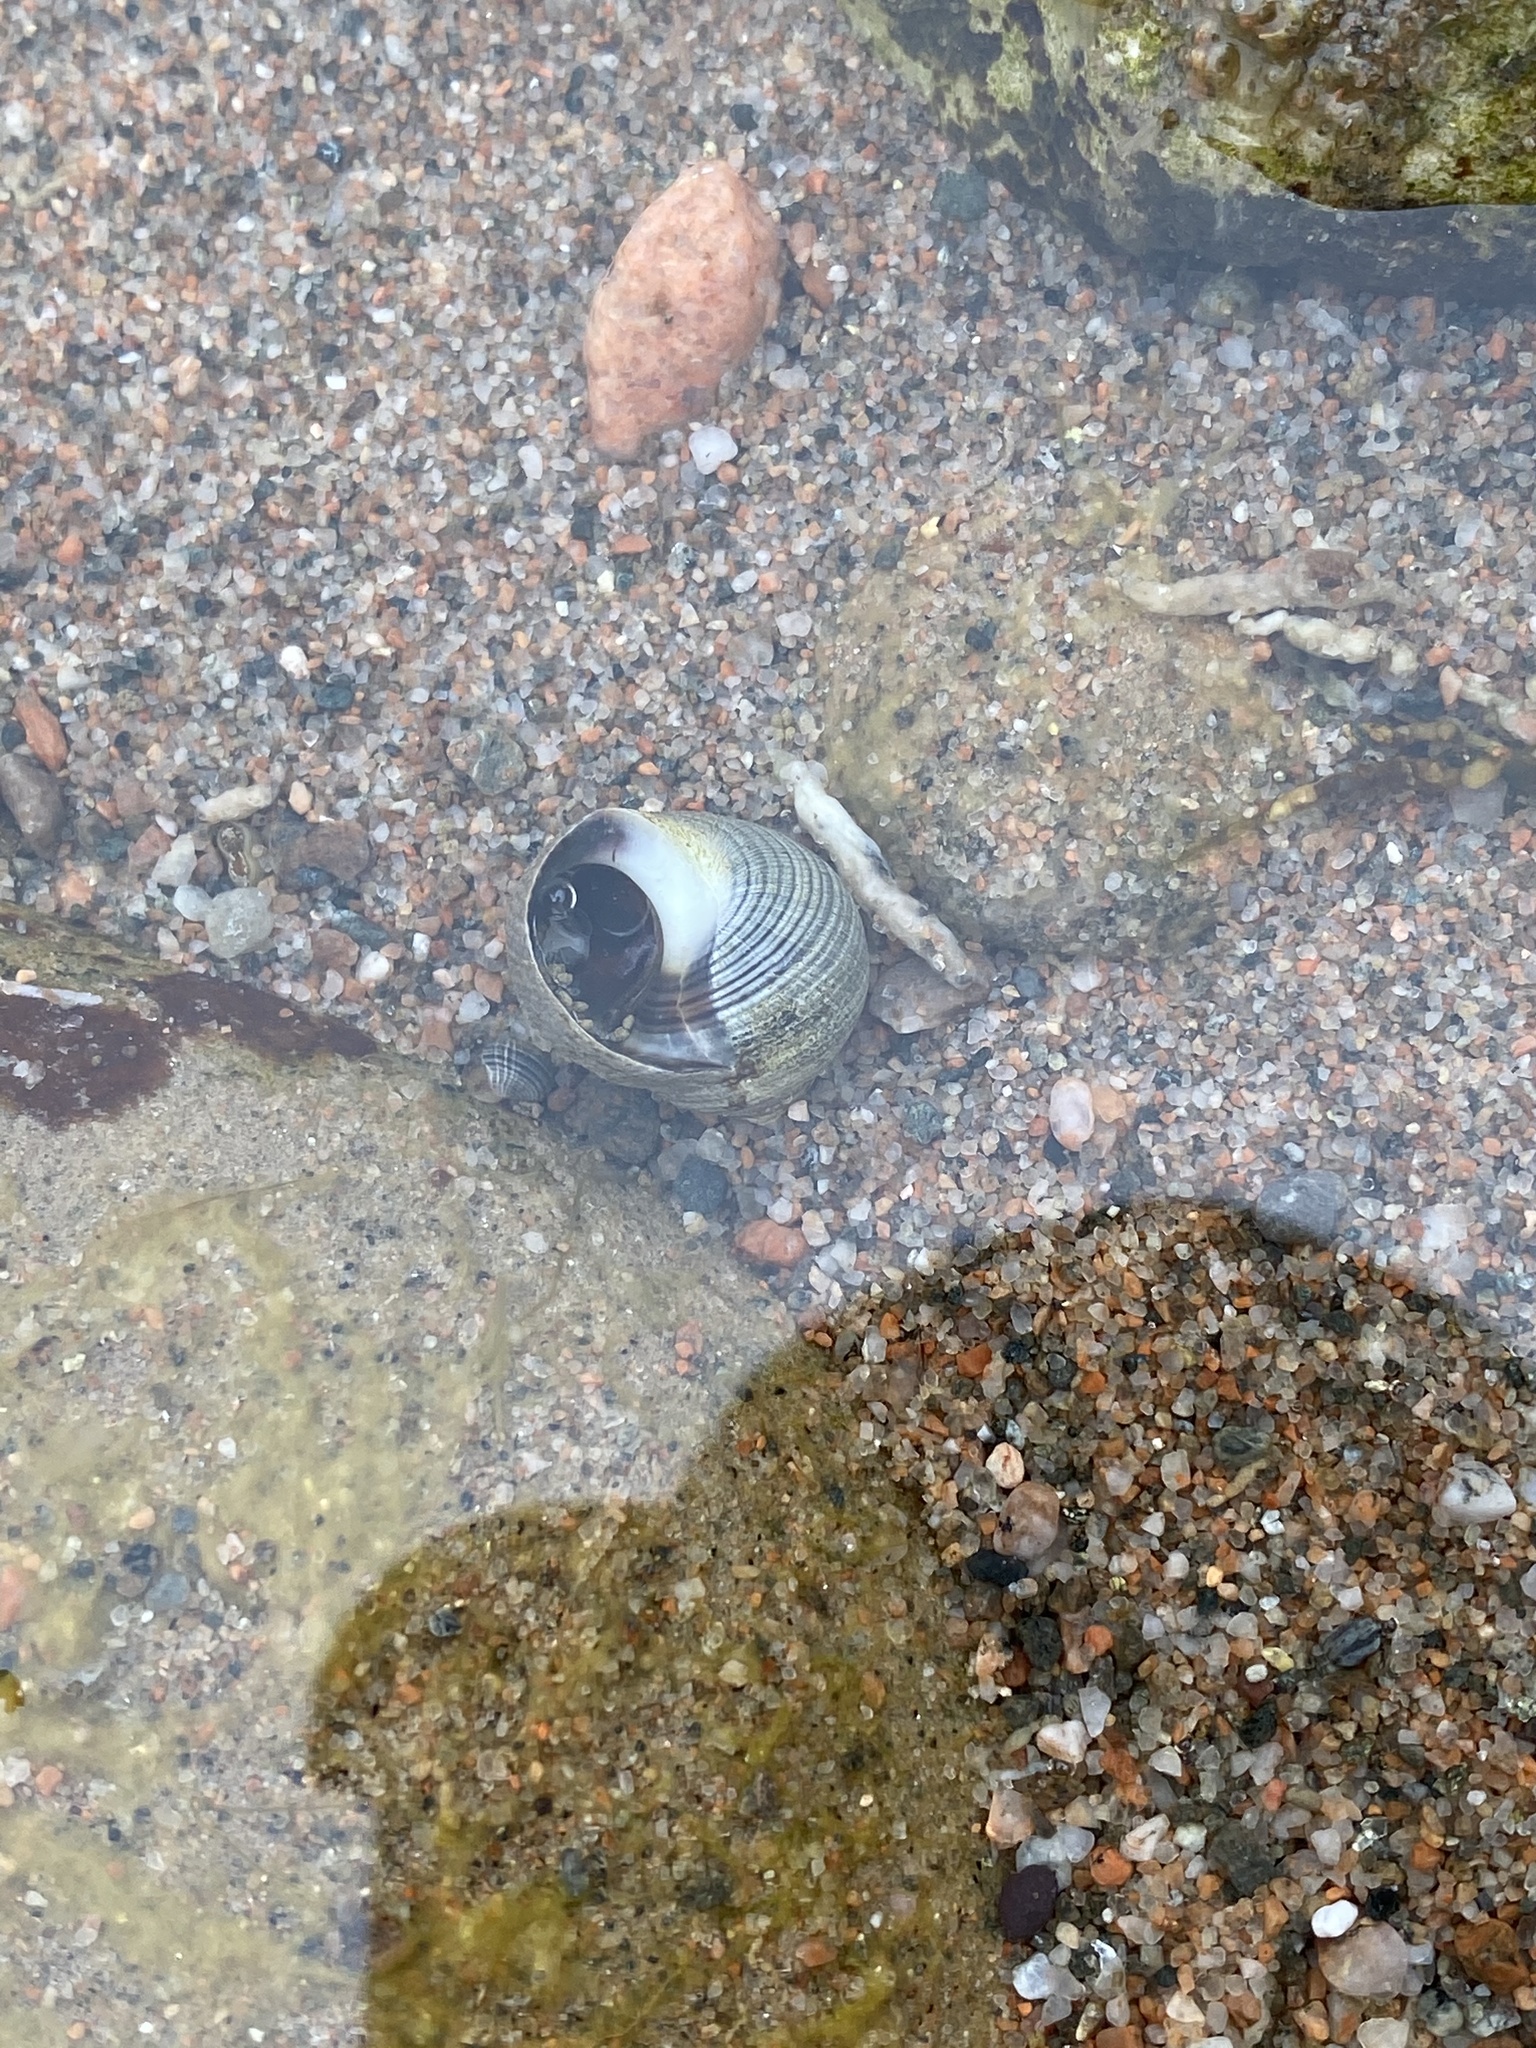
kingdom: Animalia
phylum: Mollusca
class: Gastropoda
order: Littorinimorpha
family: Littorinidae
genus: Littorina
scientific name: Littorina littorea
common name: Common periwinkle
